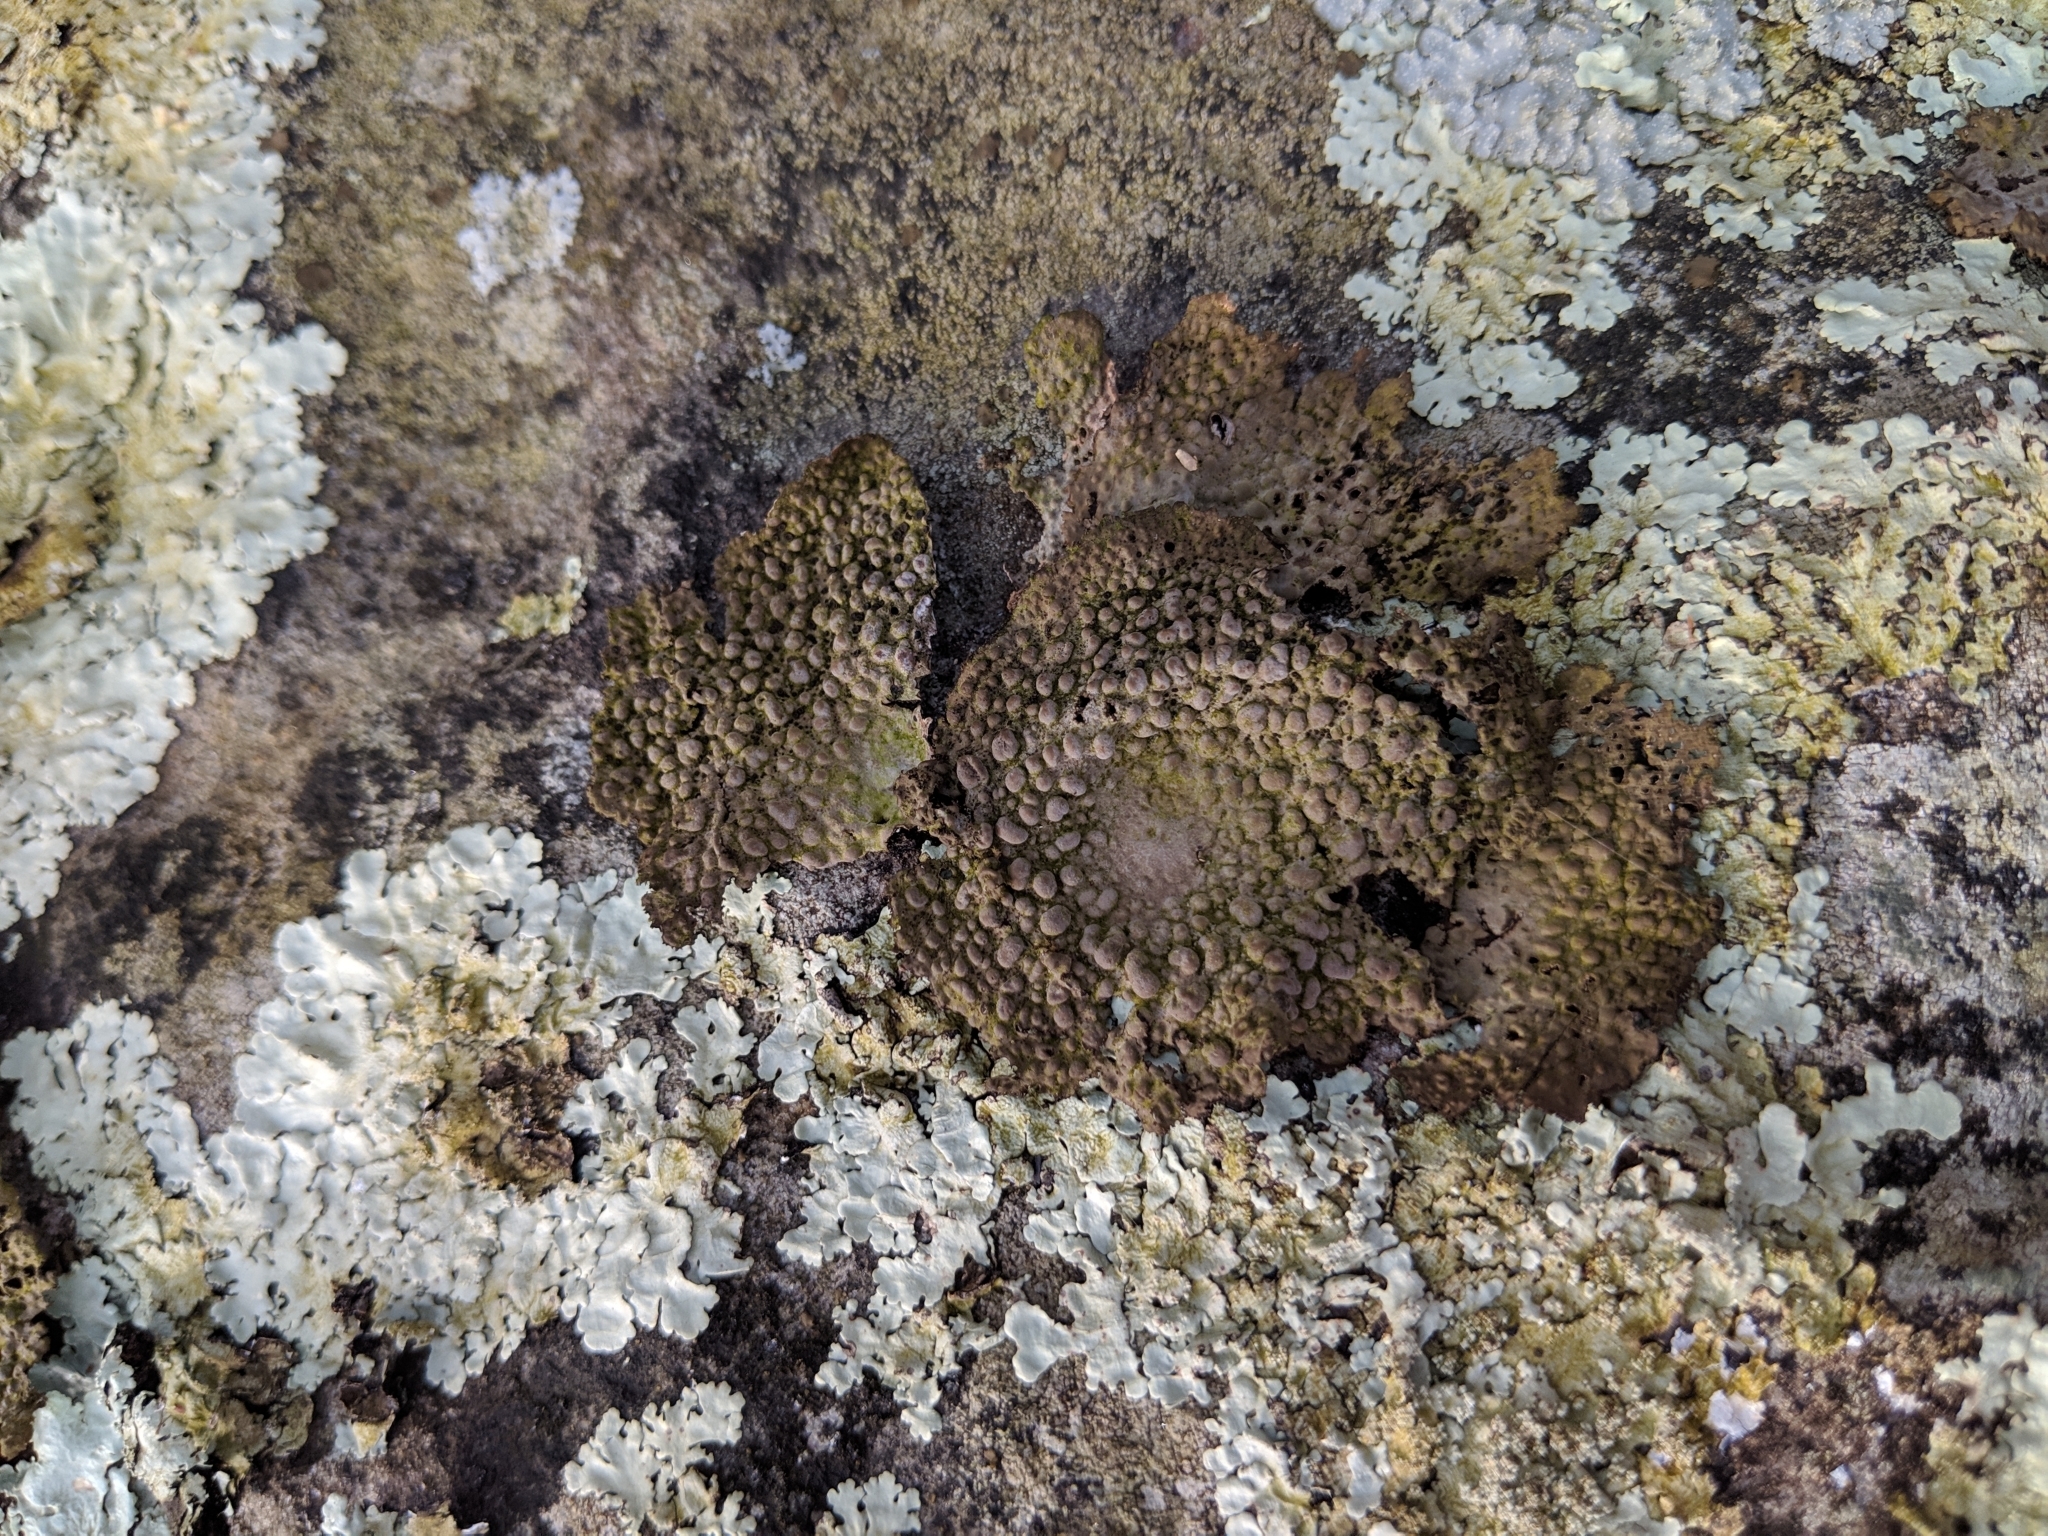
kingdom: Fungi
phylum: Ascomycota
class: Lecanoromycetes
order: Umbilicariales
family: Umbilicariaceae
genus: Lasallia
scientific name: Lasallia papulosa
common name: Common toadskin lichen
